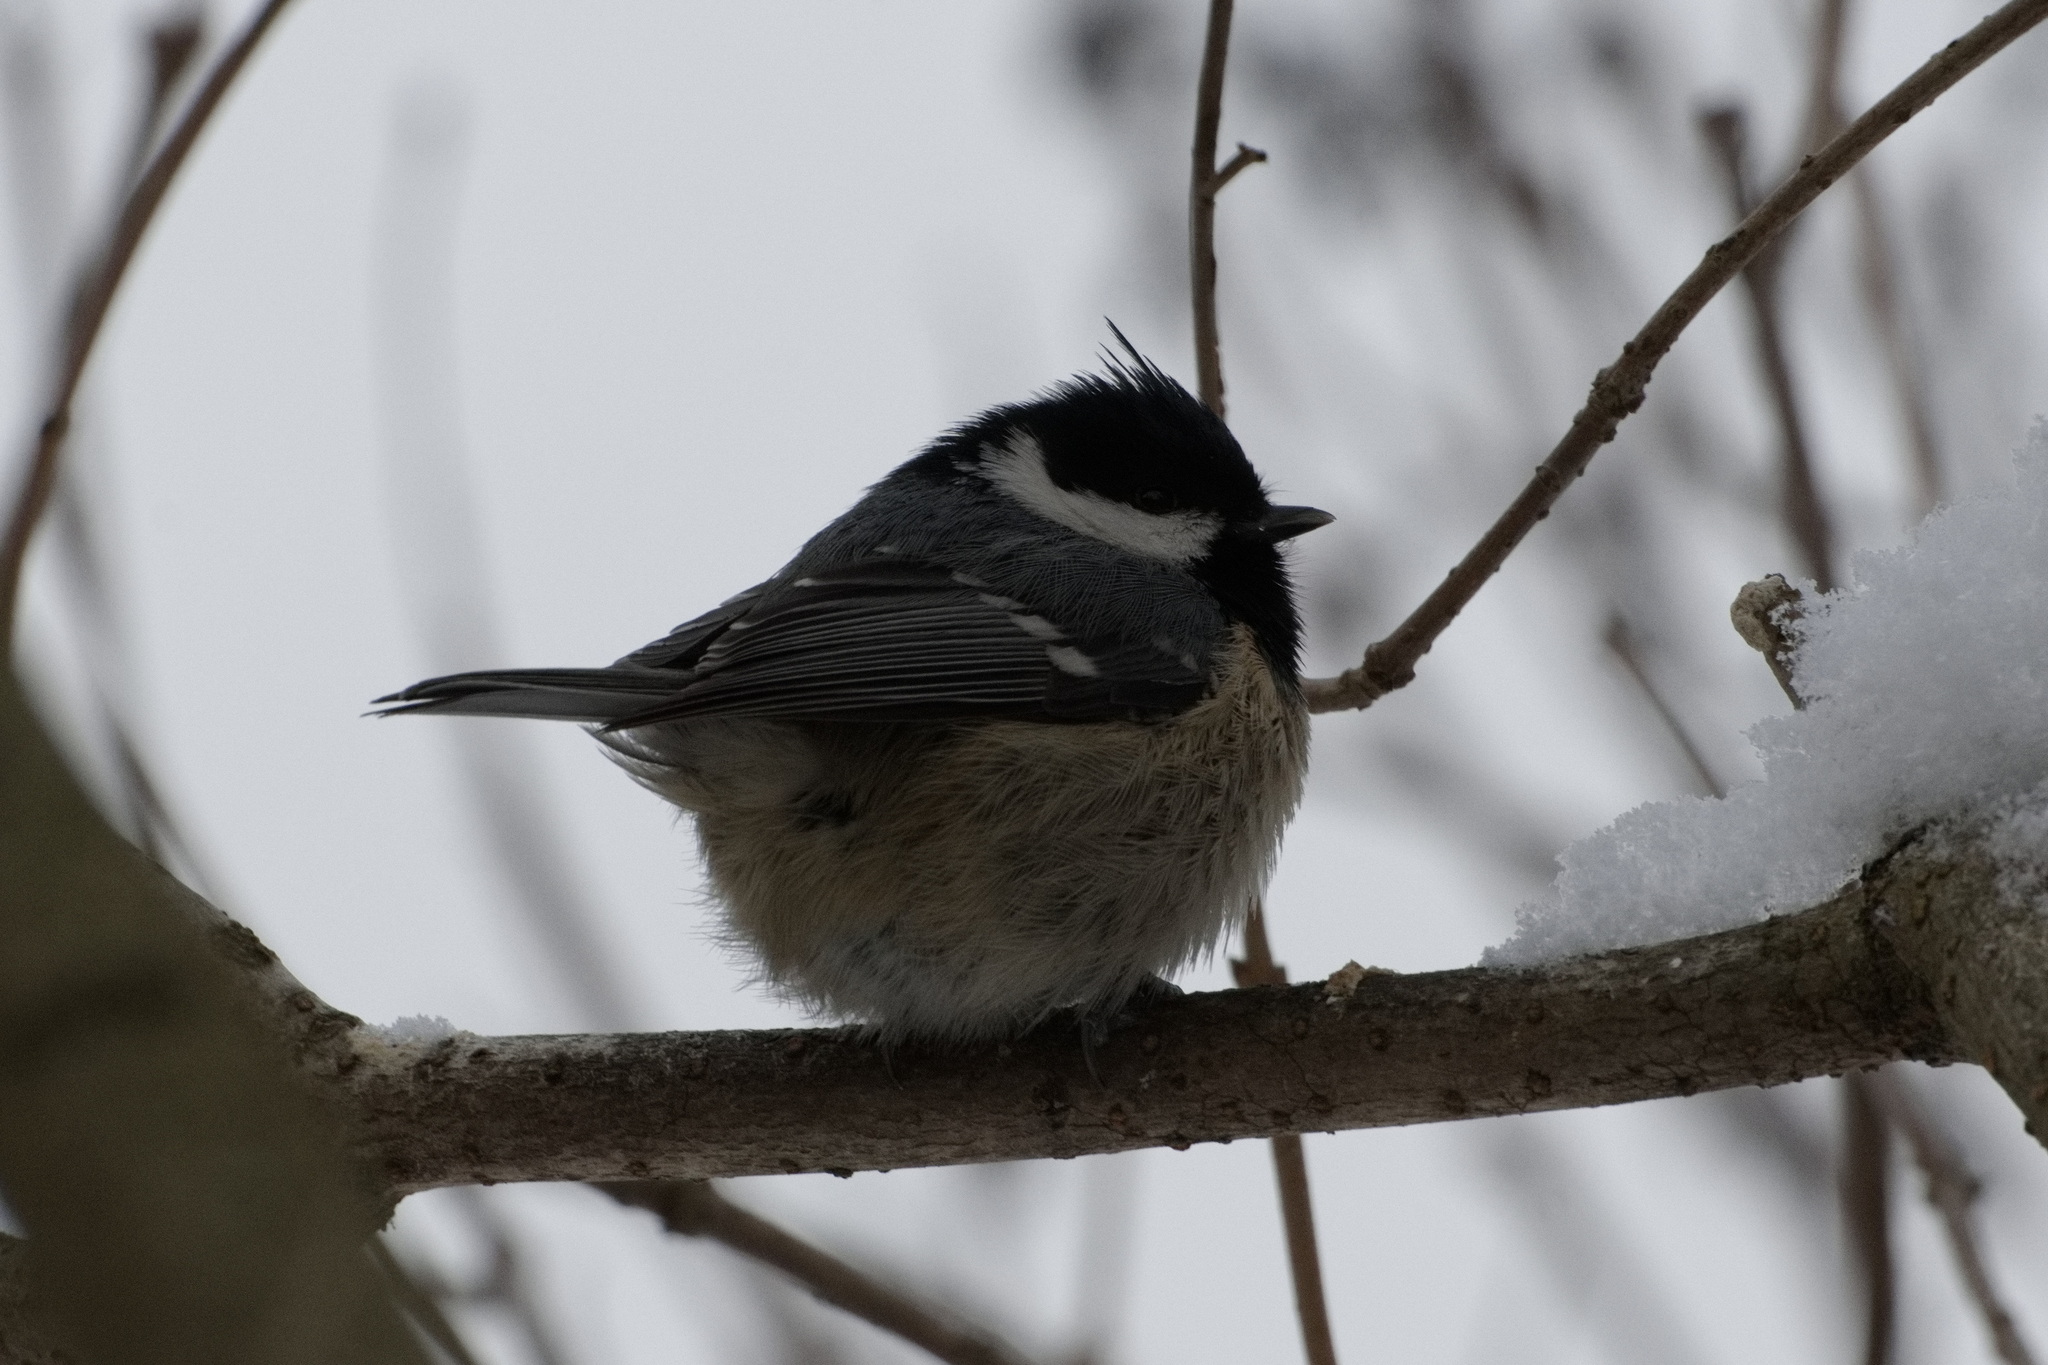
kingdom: Animalia
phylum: Chordata
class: Aves
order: Passeriformes
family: Paridae
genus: Periparus
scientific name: Periparus ater
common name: Coal tit
